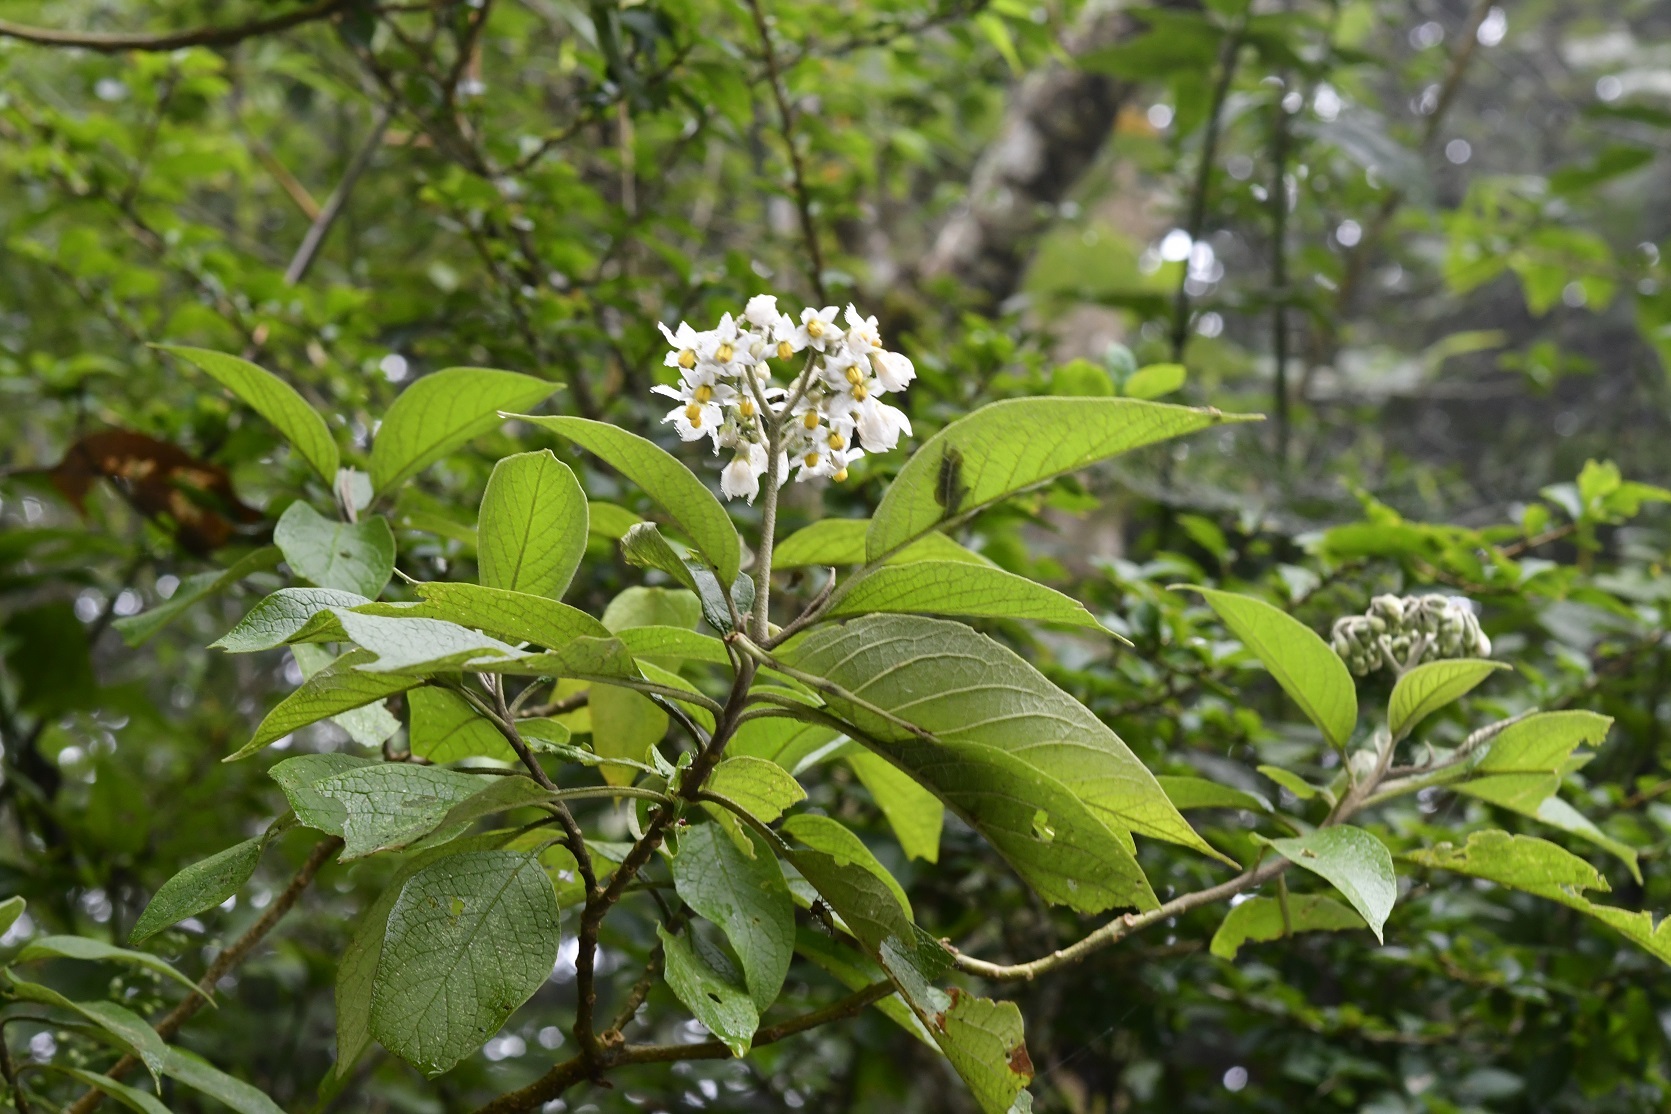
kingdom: Plantae
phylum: Tracheophyta
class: Magnoliopsida
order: Solanales
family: Solanaceae
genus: Solanum
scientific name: Solanum chiapasense
